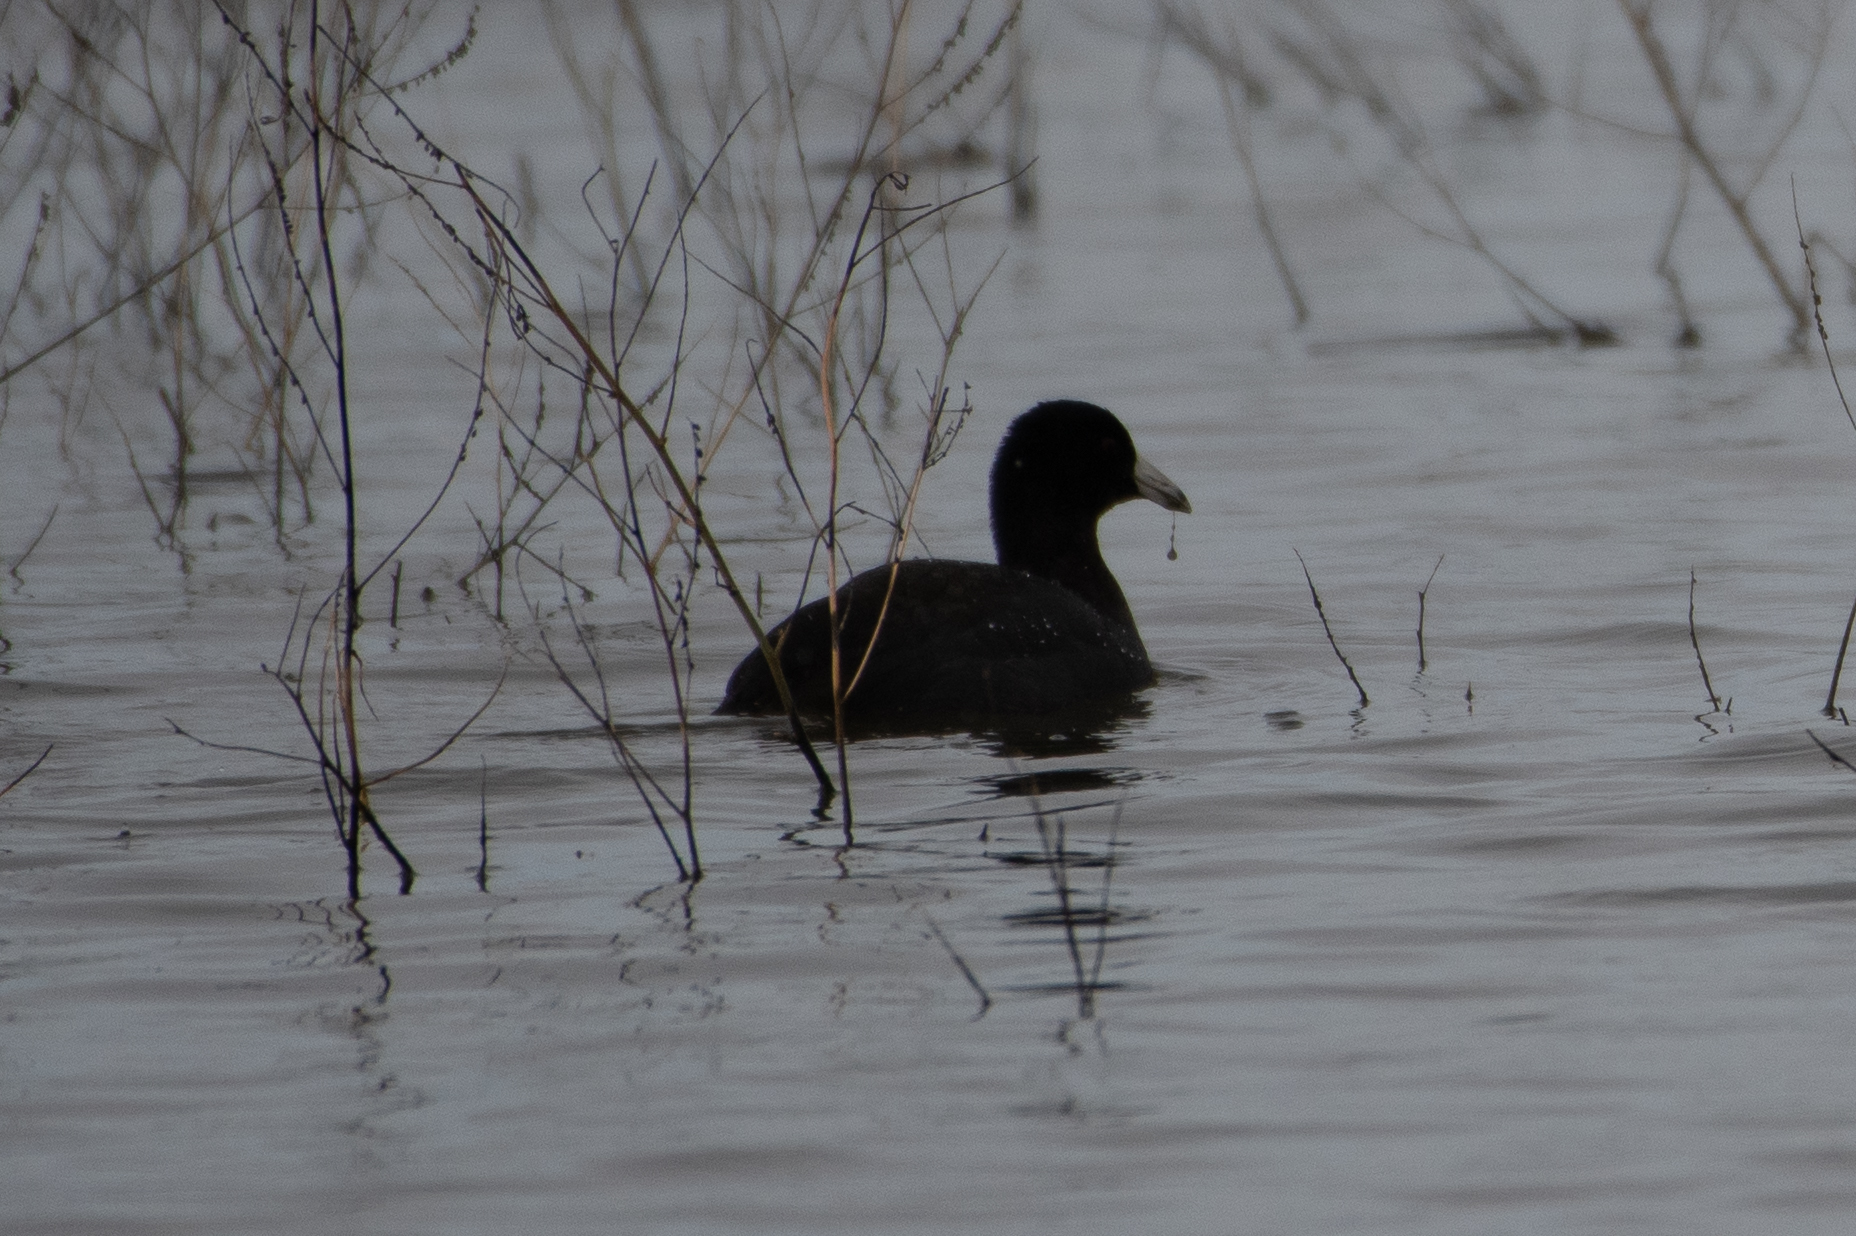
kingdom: Animalia
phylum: Chordata
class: Aves
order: Gruiformes
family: Rallidae
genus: Fulica
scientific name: Fulica americana
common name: American coot
